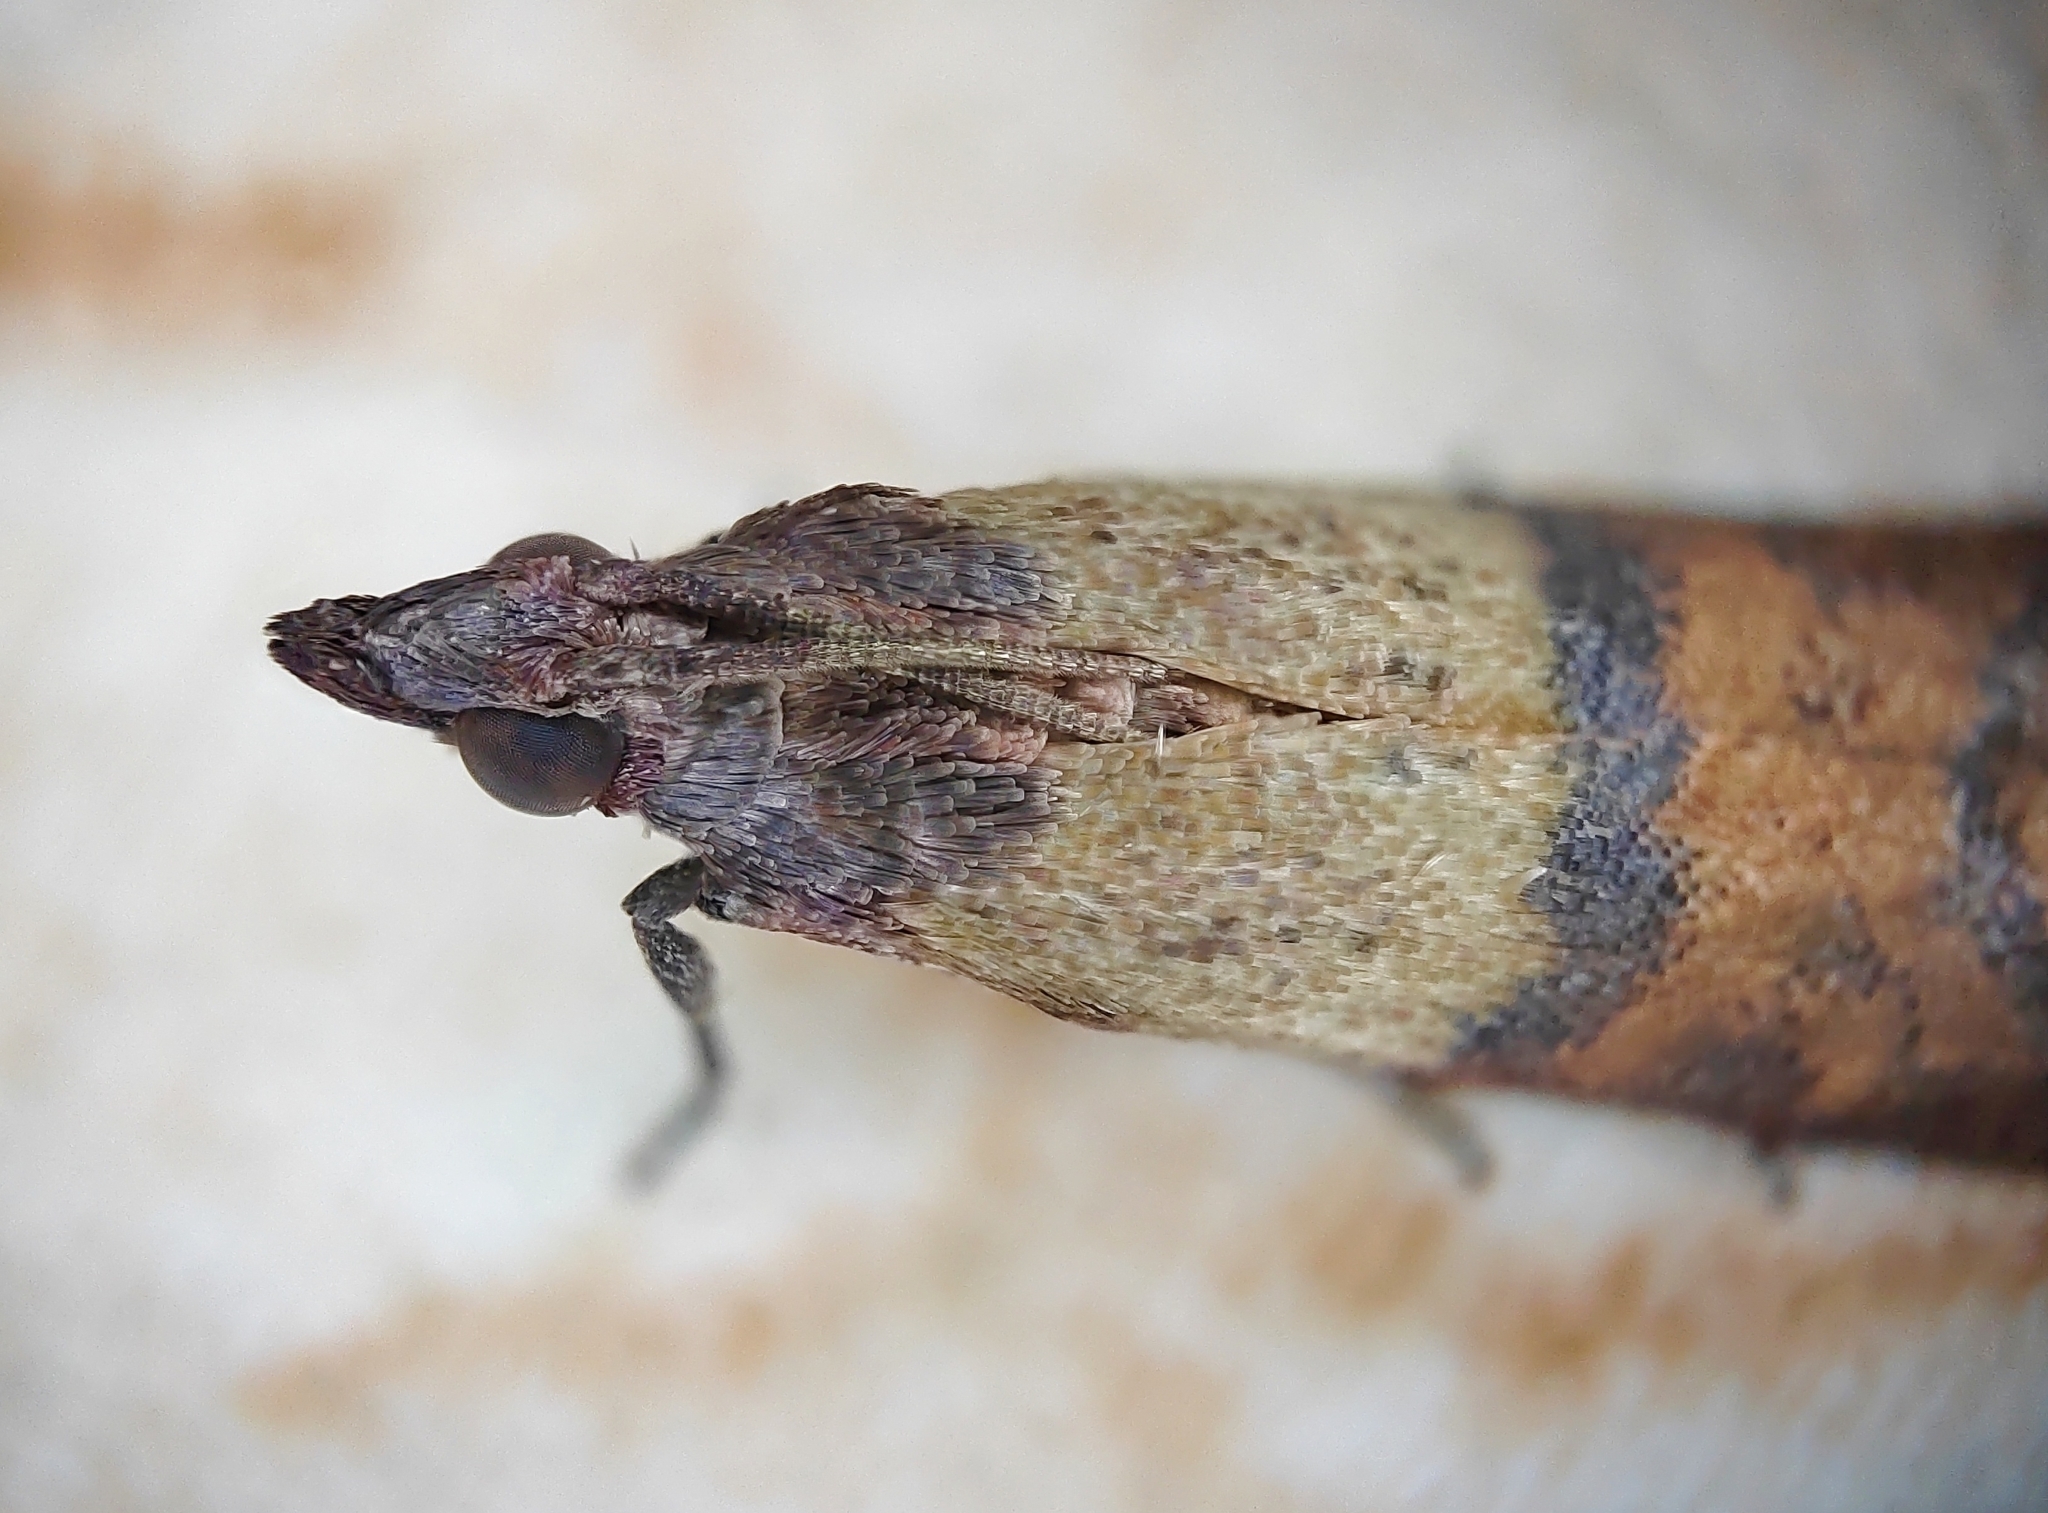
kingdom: Animalia
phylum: Arthropoda
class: Insecta
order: Lepidoptera
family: Pyralidae
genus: Plodia
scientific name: Plodia interpunctella
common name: Indian meal moth
